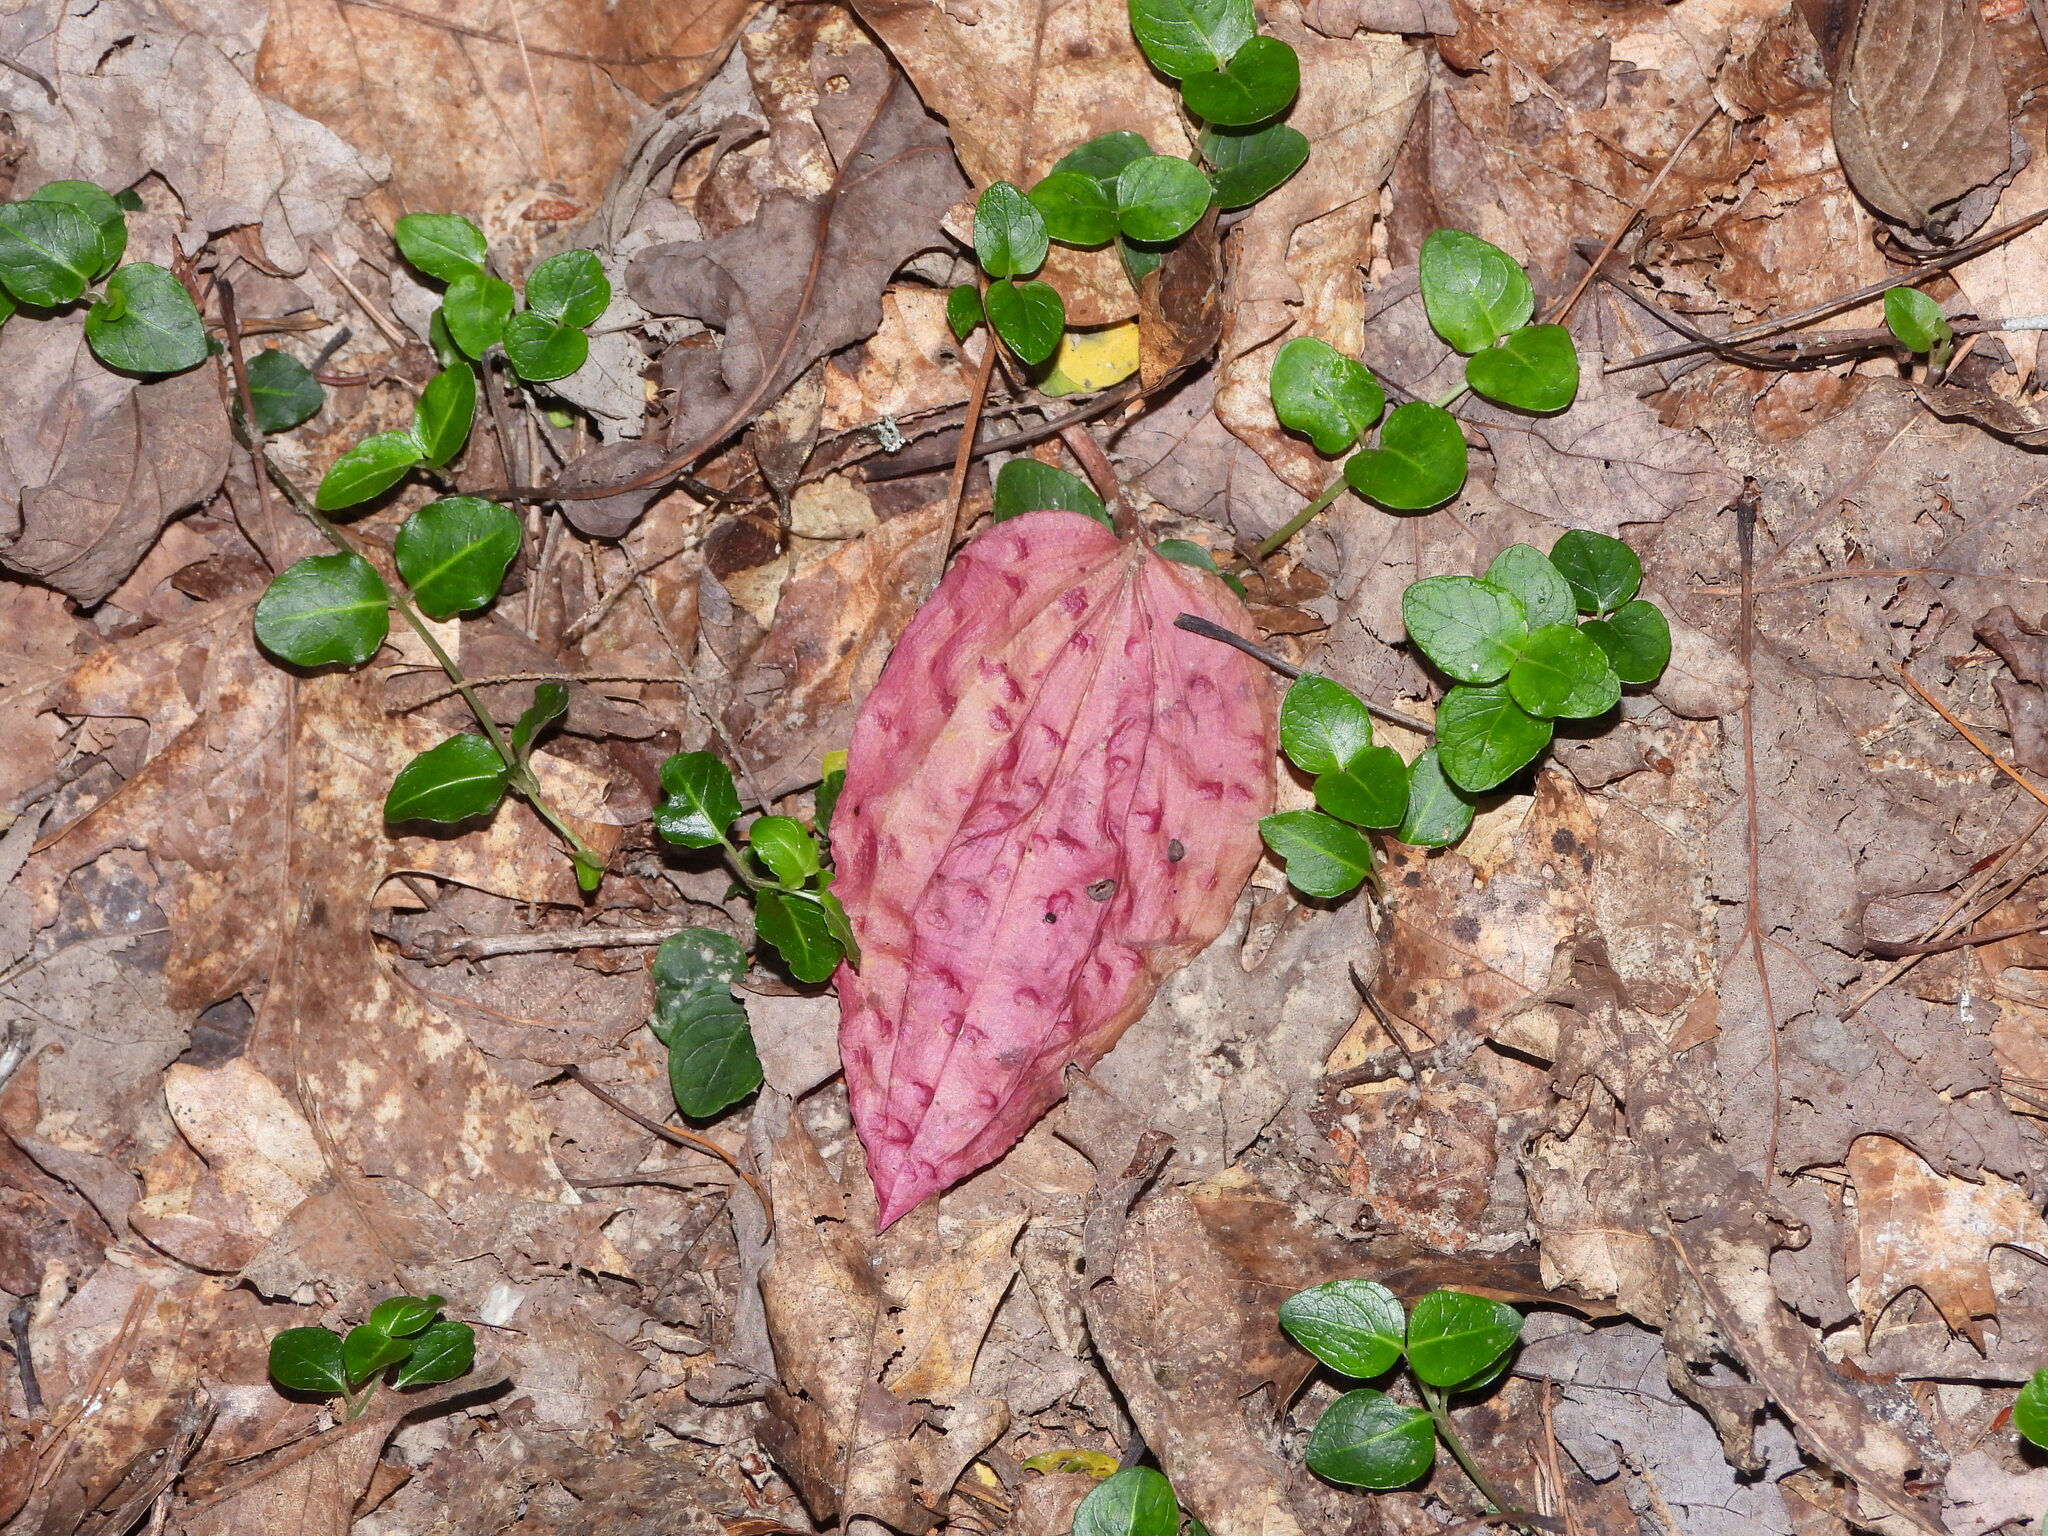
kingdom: Plantae
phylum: Tracheophyta
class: Liliopsida
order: Asparagales
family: Orchidaceae
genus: Tipularia
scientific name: Tipularia discolor
